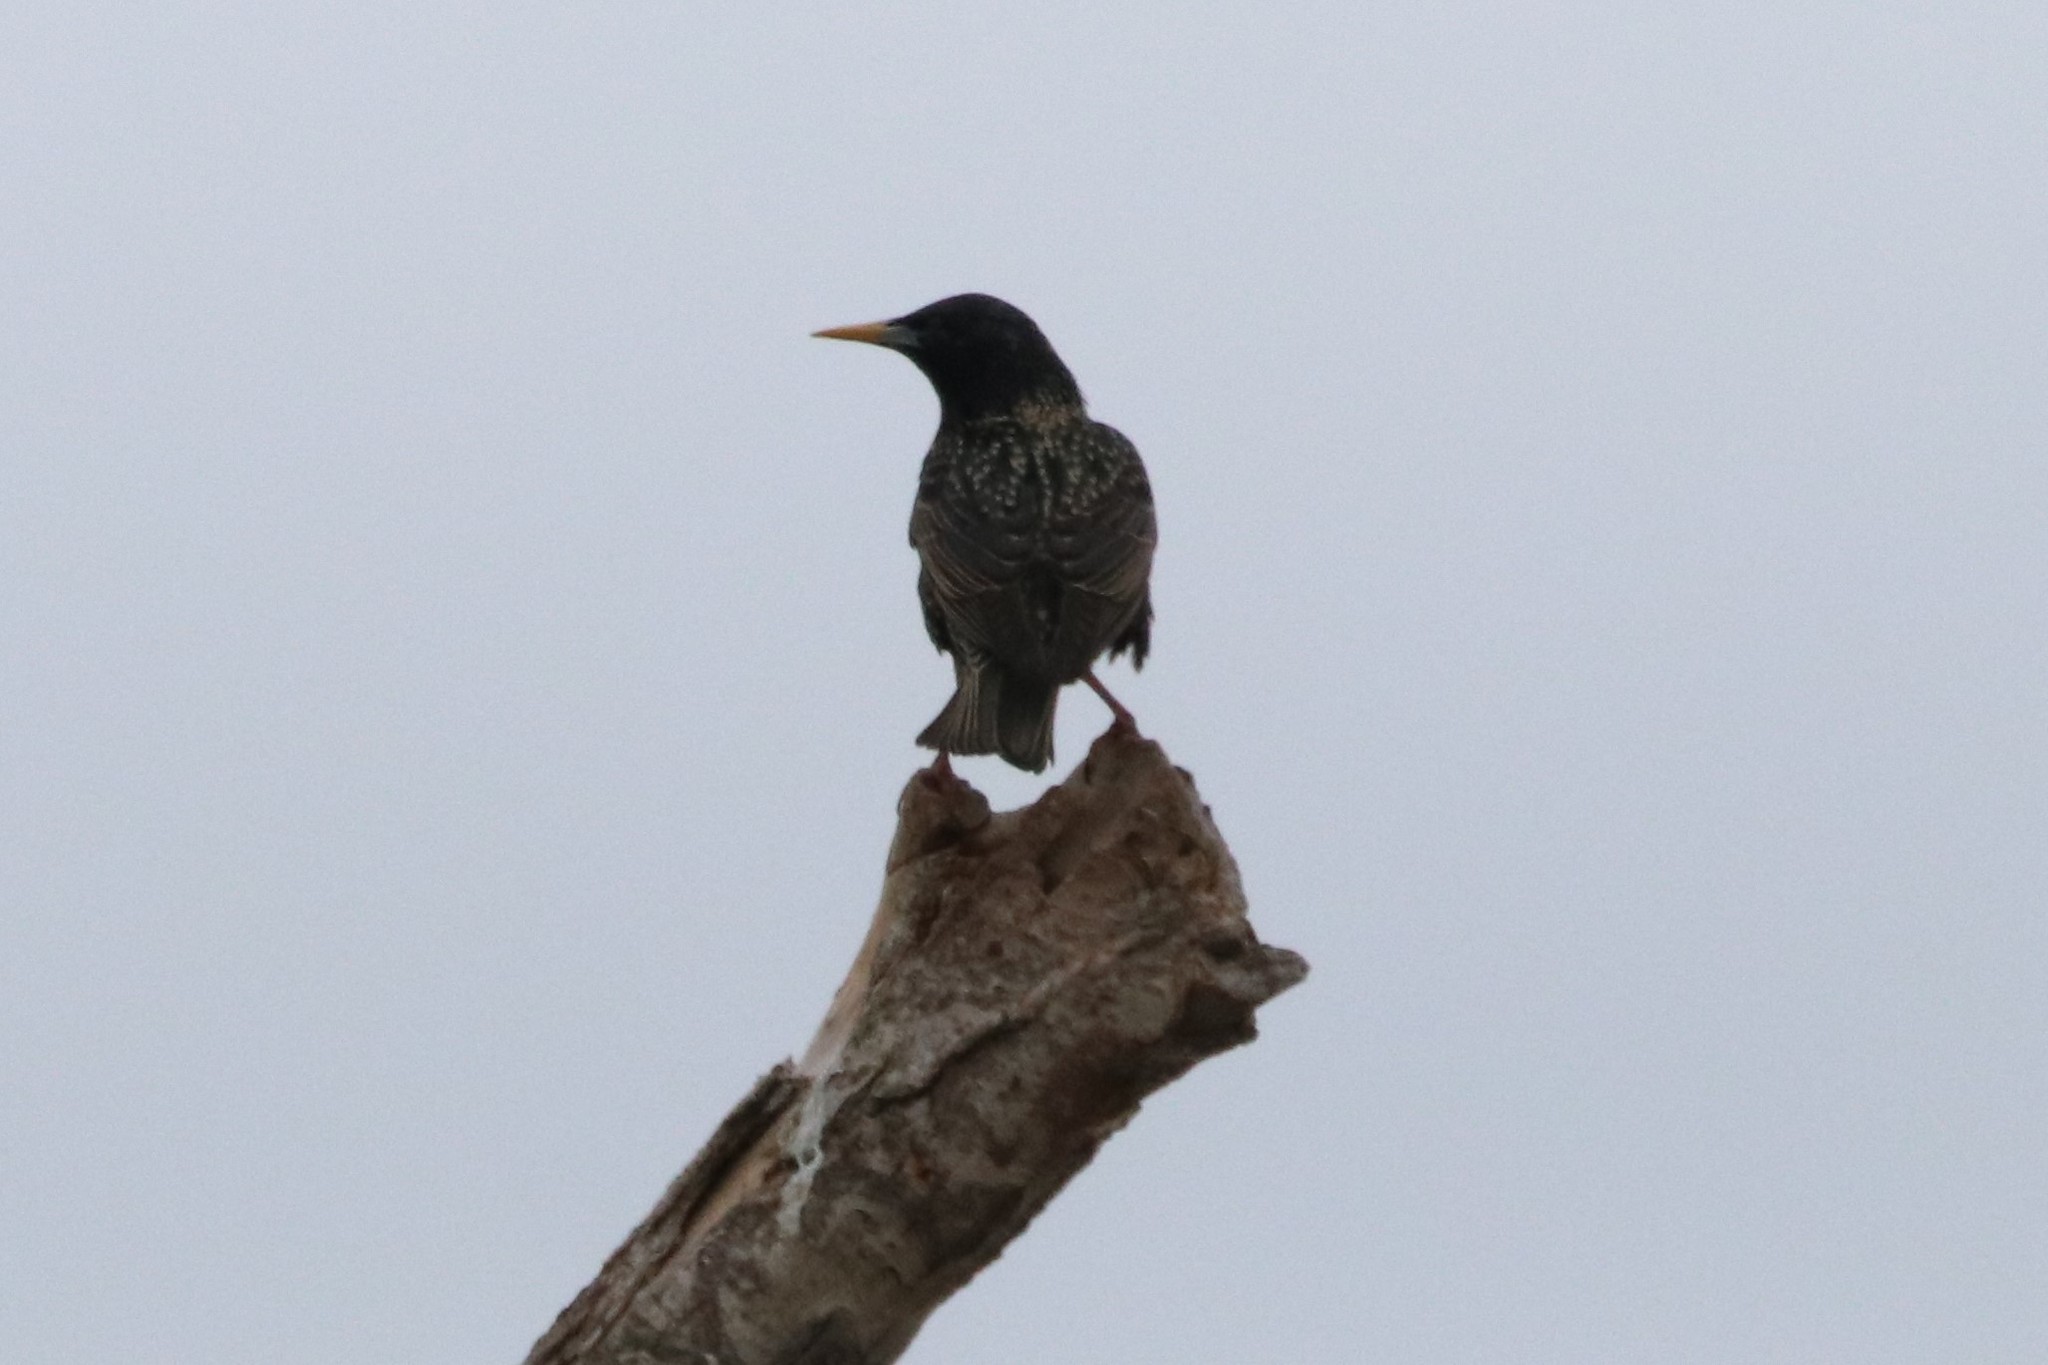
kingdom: Animalia
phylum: Chordata
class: Aves
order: Passeriformes
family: Sturnidae
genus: Sturnus
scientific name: Sturnus vulgaris
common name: Common starling
